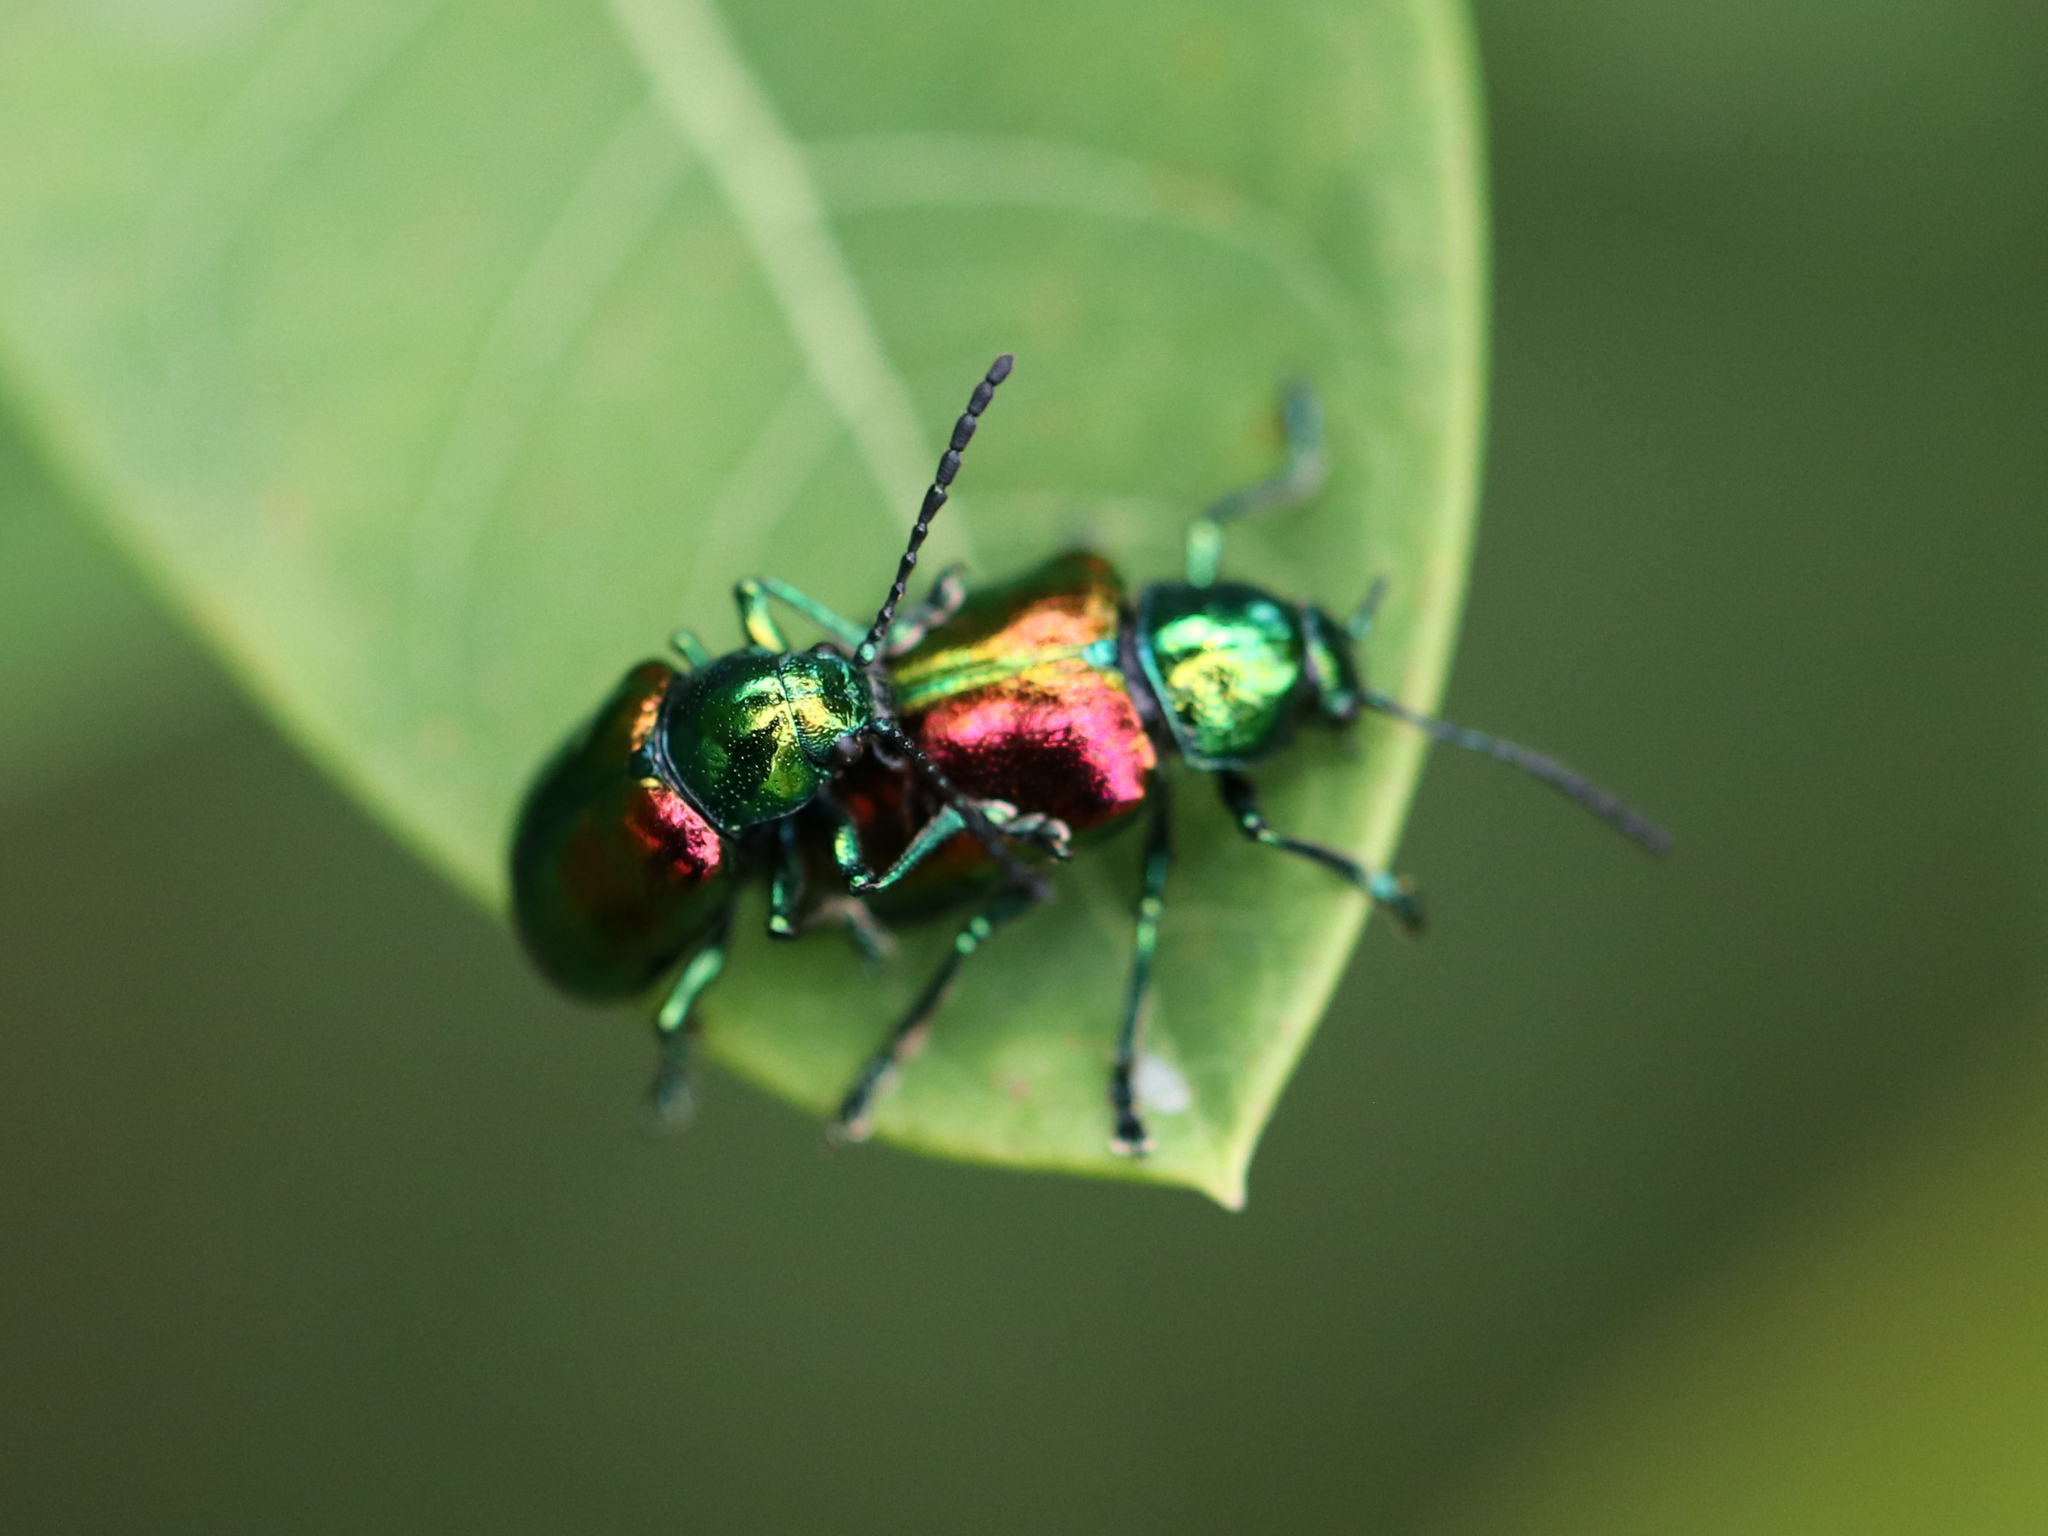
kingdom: Animalia
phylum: Arthropoda
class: Insecta
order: Coleoptera
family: Chrysomelidae
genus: Chrysochus
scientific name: Chrysochus auratus
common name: Dogbane leaf beetle
